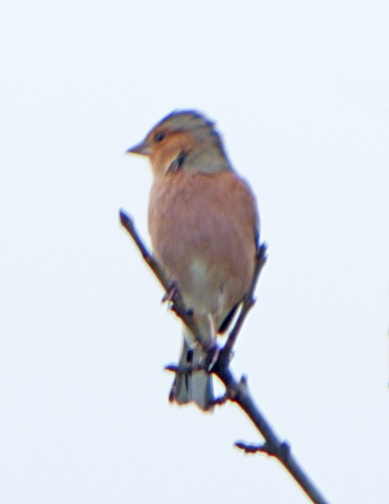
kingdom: Animalia
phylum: Chordata
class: Aves
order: Passeriformes
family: Fringillidae
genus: Fringilla
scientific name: Fringilla coelebs
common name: Common chaffinch
